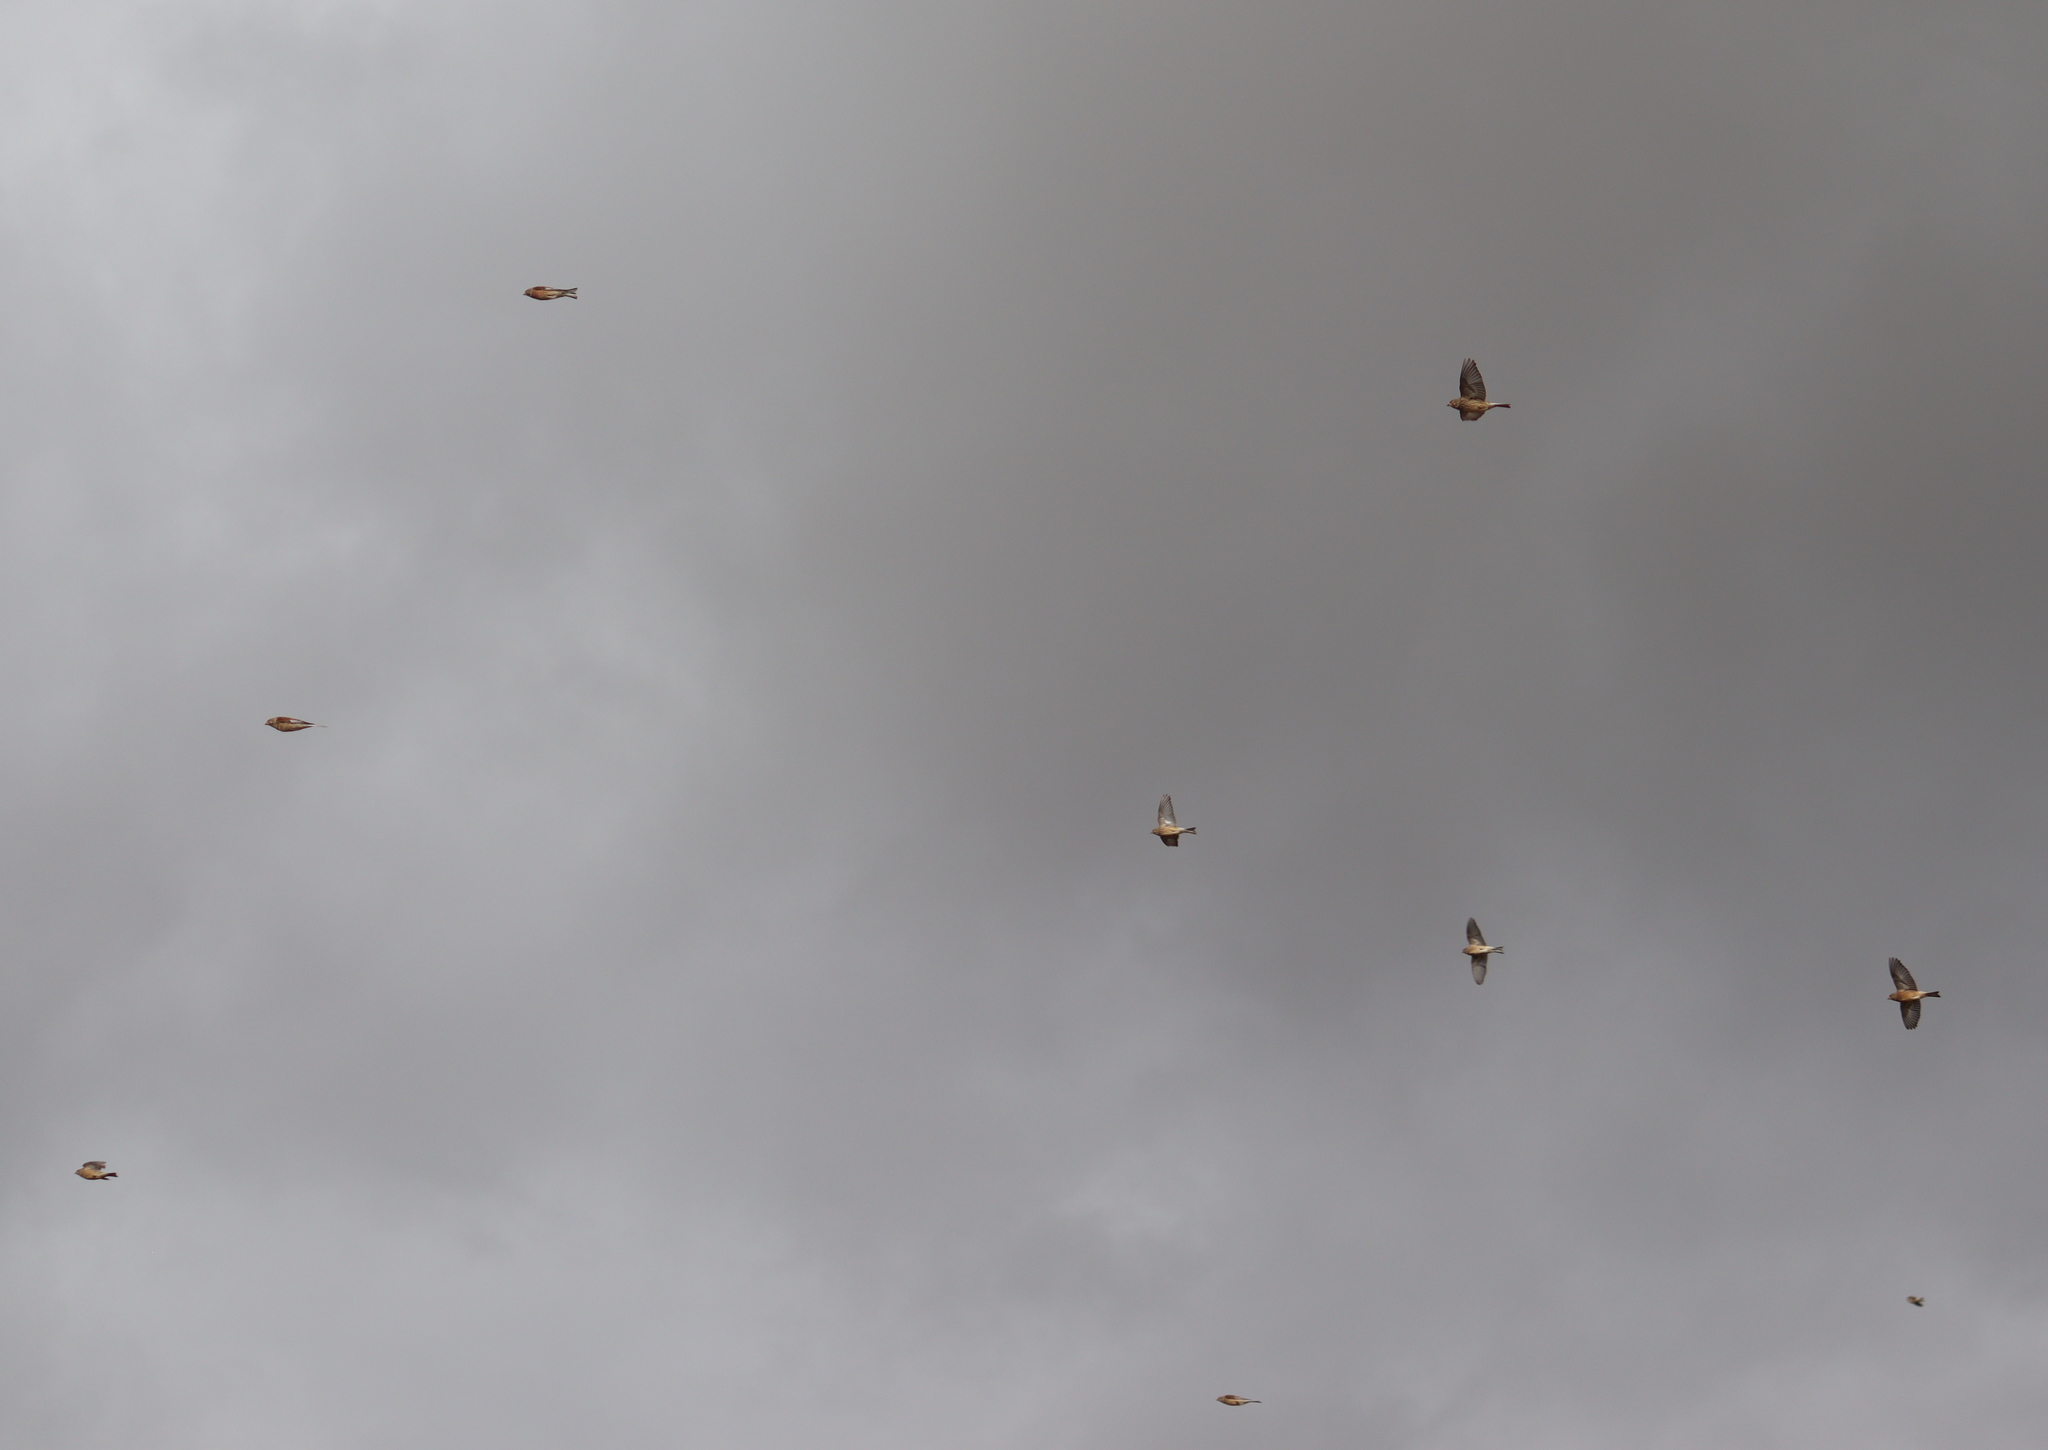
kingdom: Animalia
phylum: Chordata
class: Aves
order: Passeriformes
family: Fringillidae
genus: Linaria
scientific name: Linaria cannabina
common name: Common linnet
